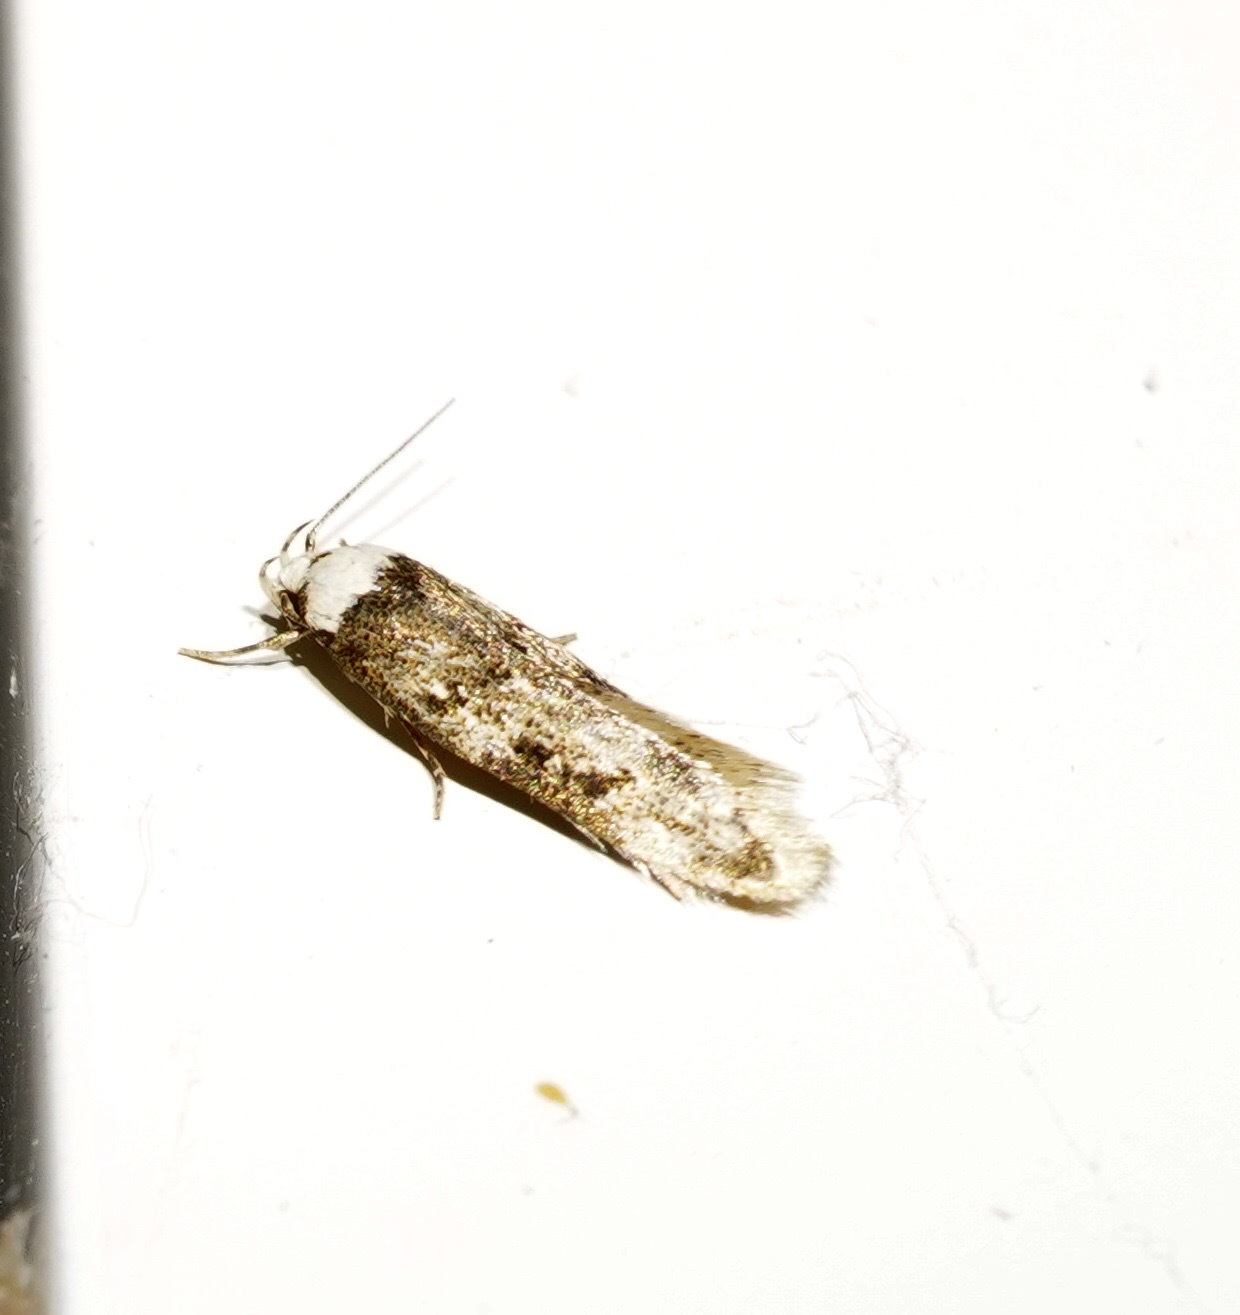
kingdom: Animalia
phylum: Arthropoda
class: Insecta
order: Lepidoptera
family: Oecophoridae
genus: Endrosis
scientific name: Endrosis sarcitrella
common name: White-shouldered house moth
